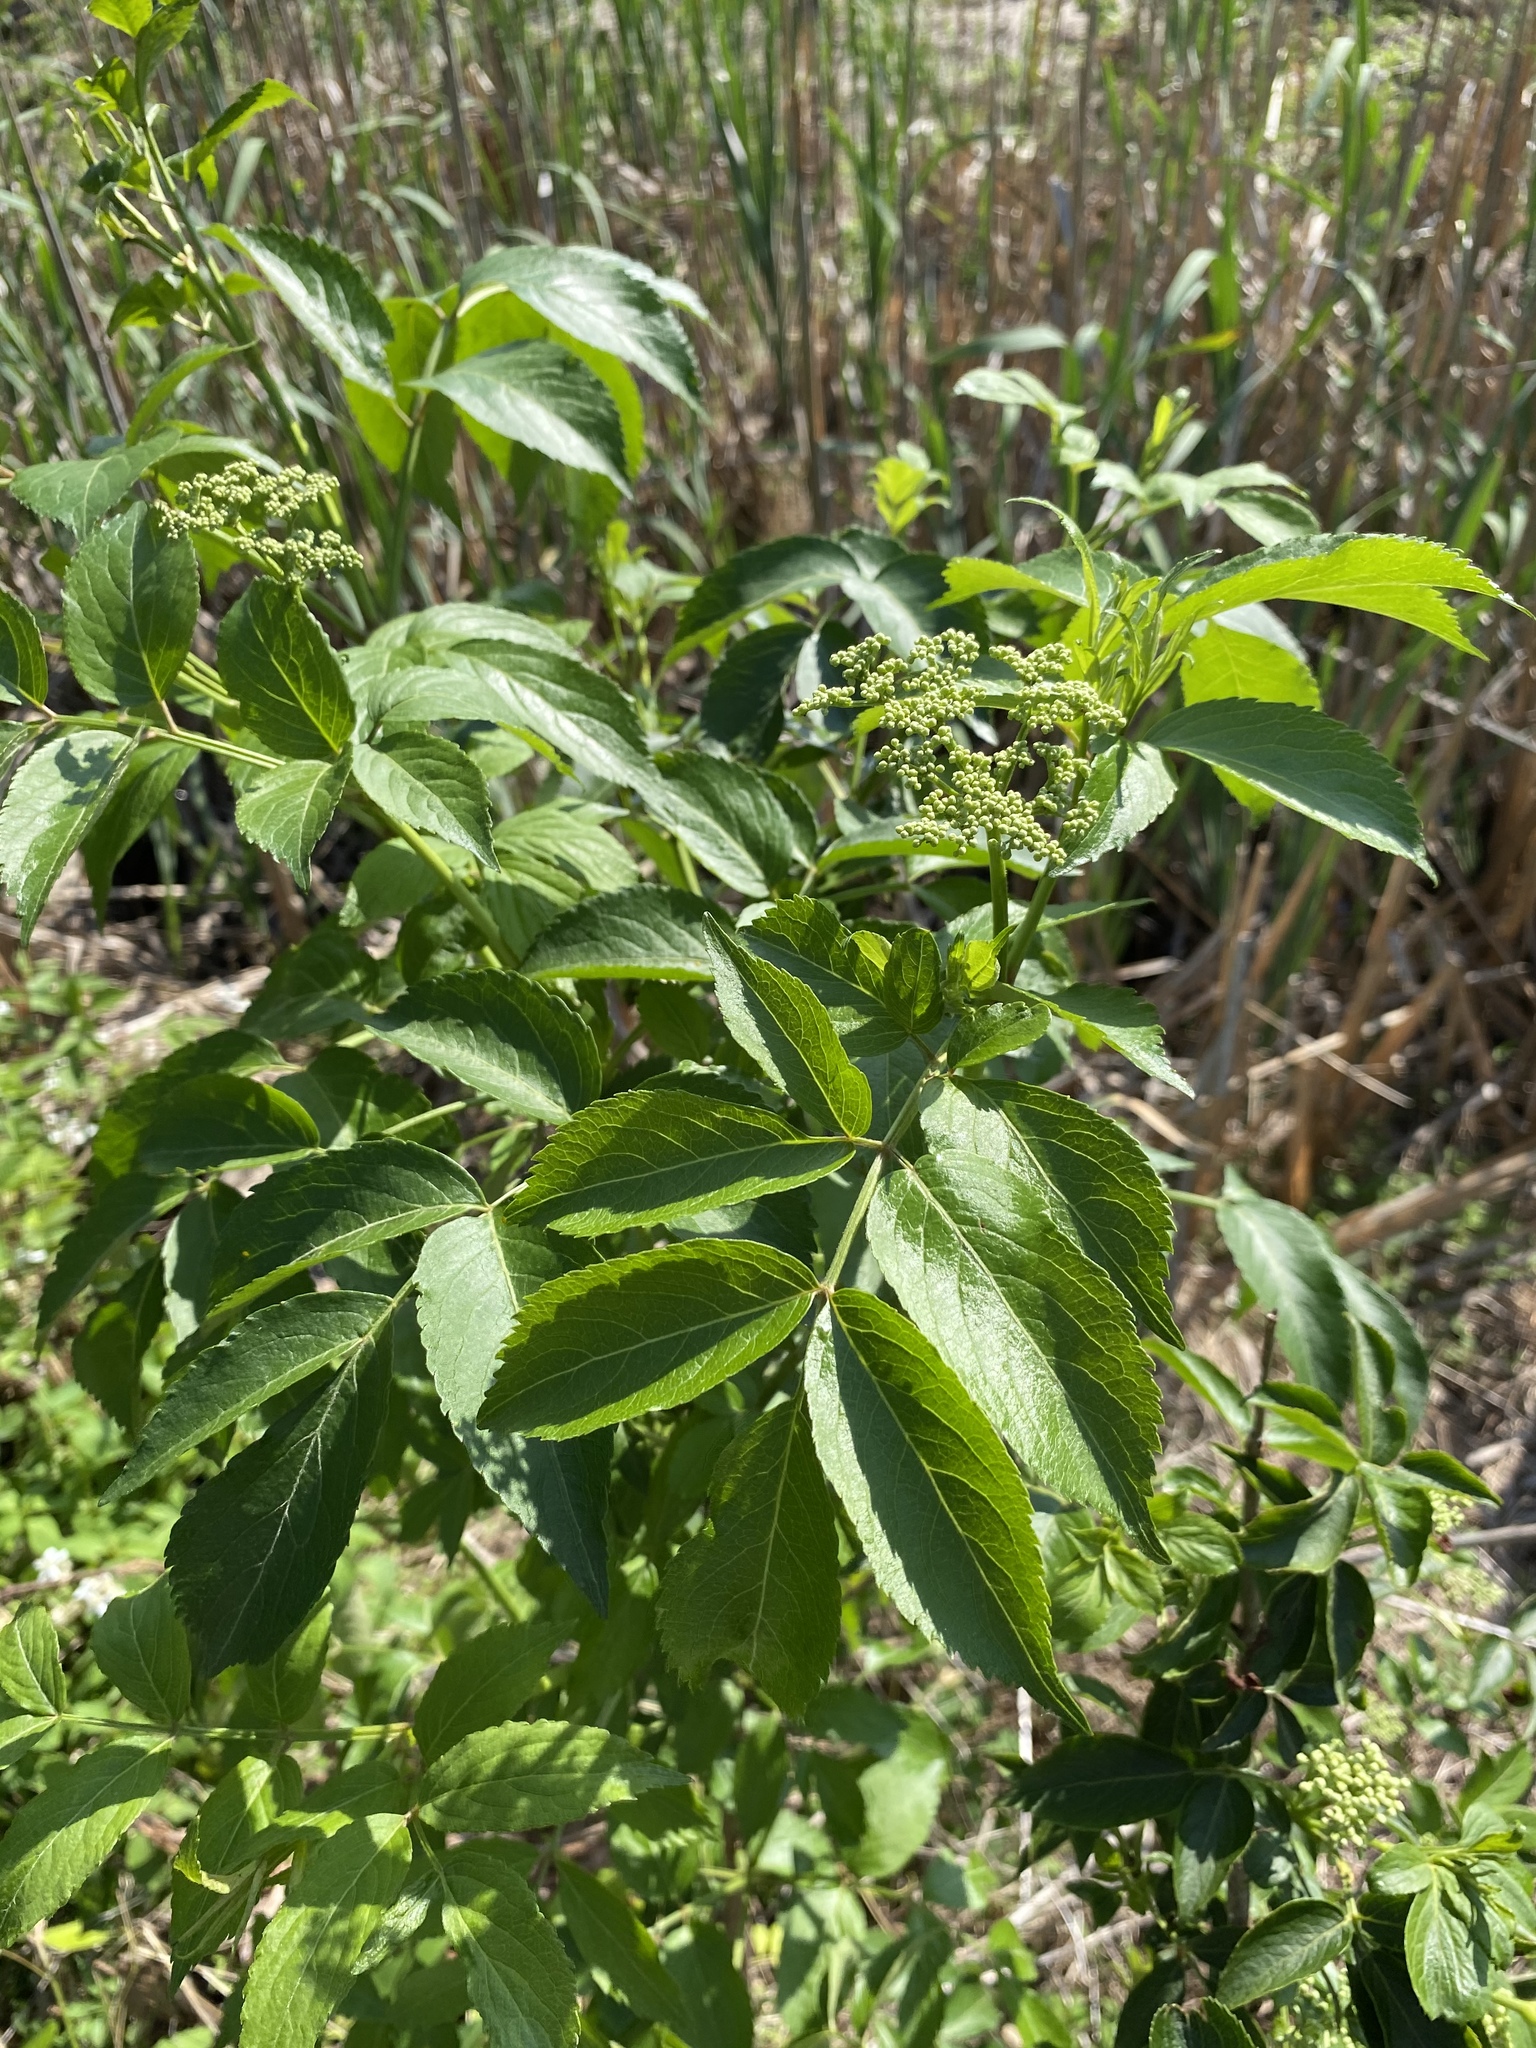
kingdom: Plantae
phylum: Tracheophyta
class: Magnoliopsida
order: Dipsacales
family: Viburnaceae
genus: Sambucus
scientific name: Sambucus canadensis
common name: American elder
